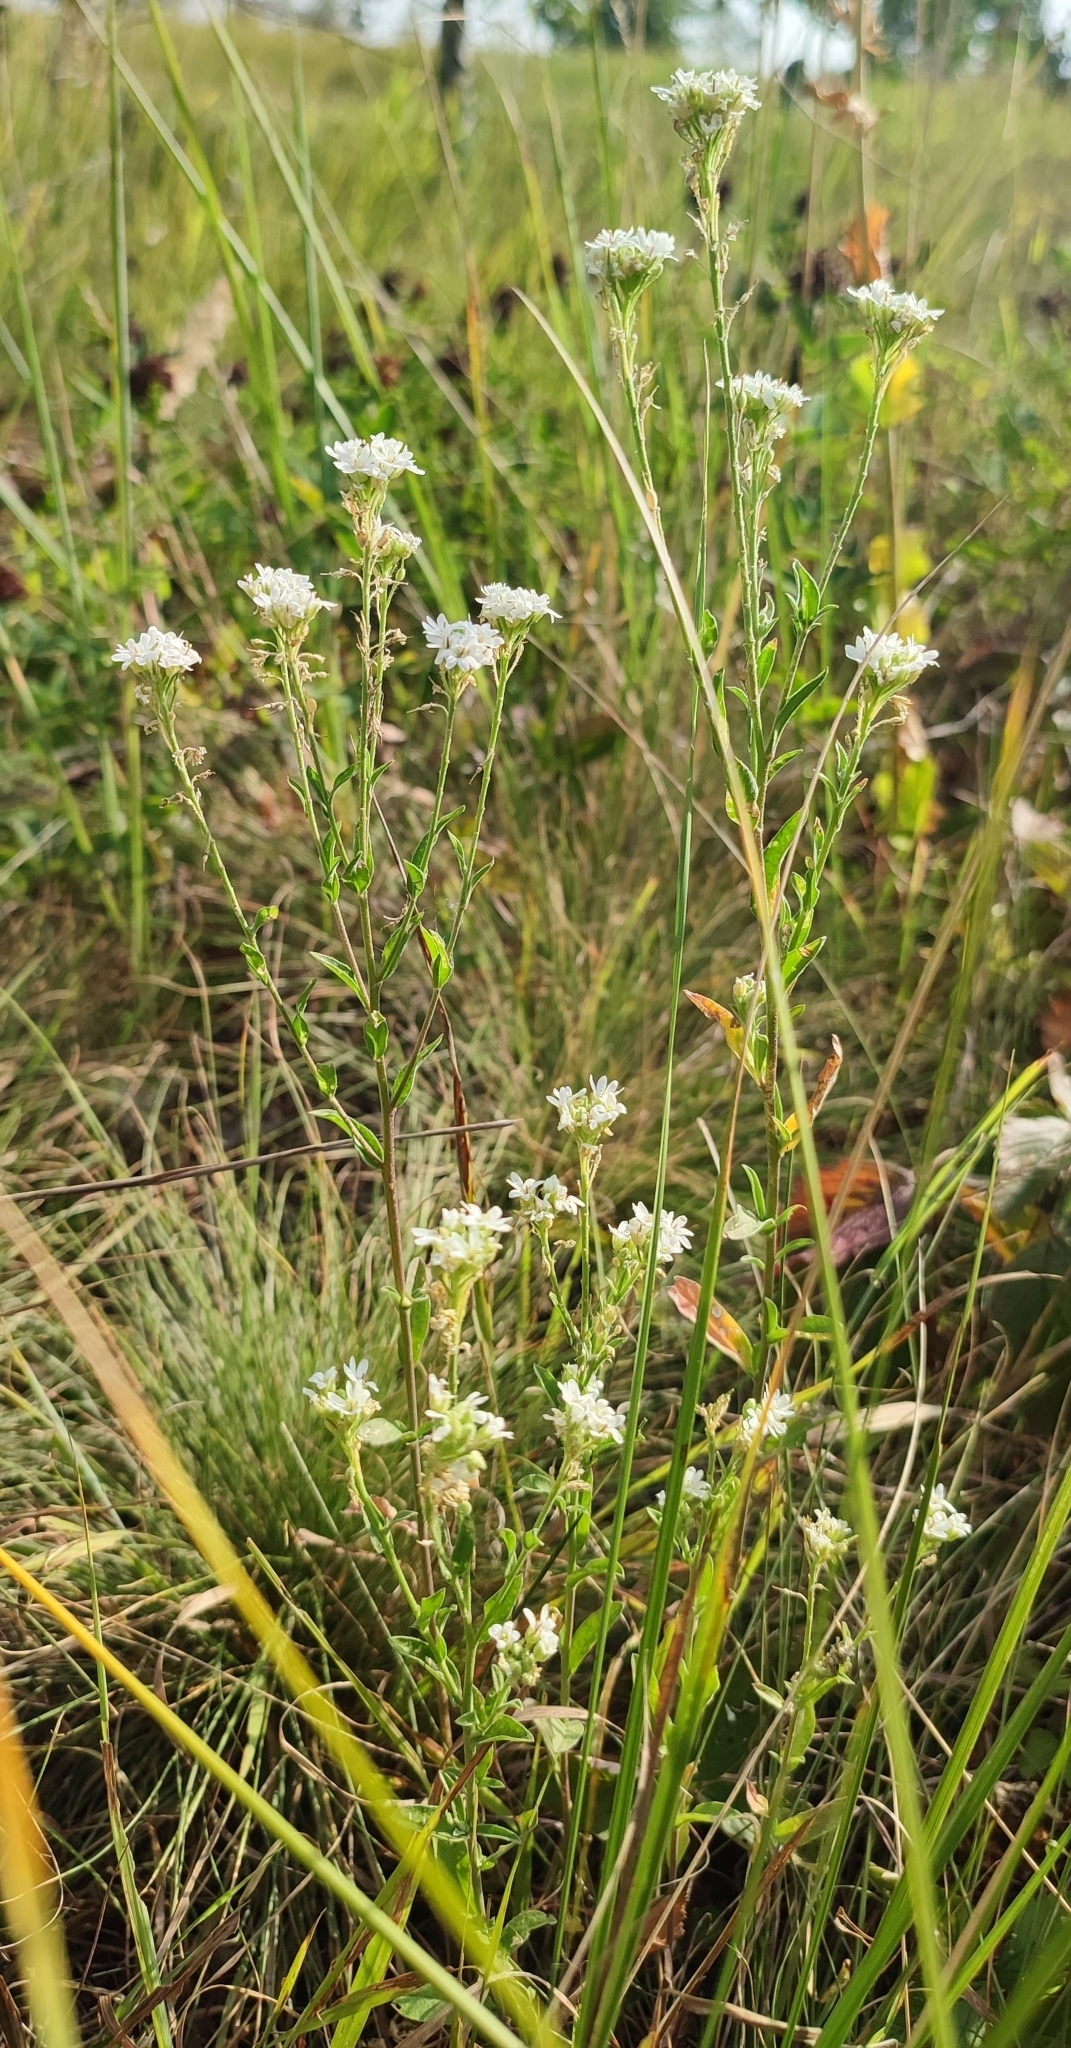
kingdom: Plantae
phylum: Tracheophyta
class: Magnoliopsida
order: Brassicales
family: Brassicaceae
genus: Berteroa
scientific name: Berteroa incana
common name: Hoary alison
